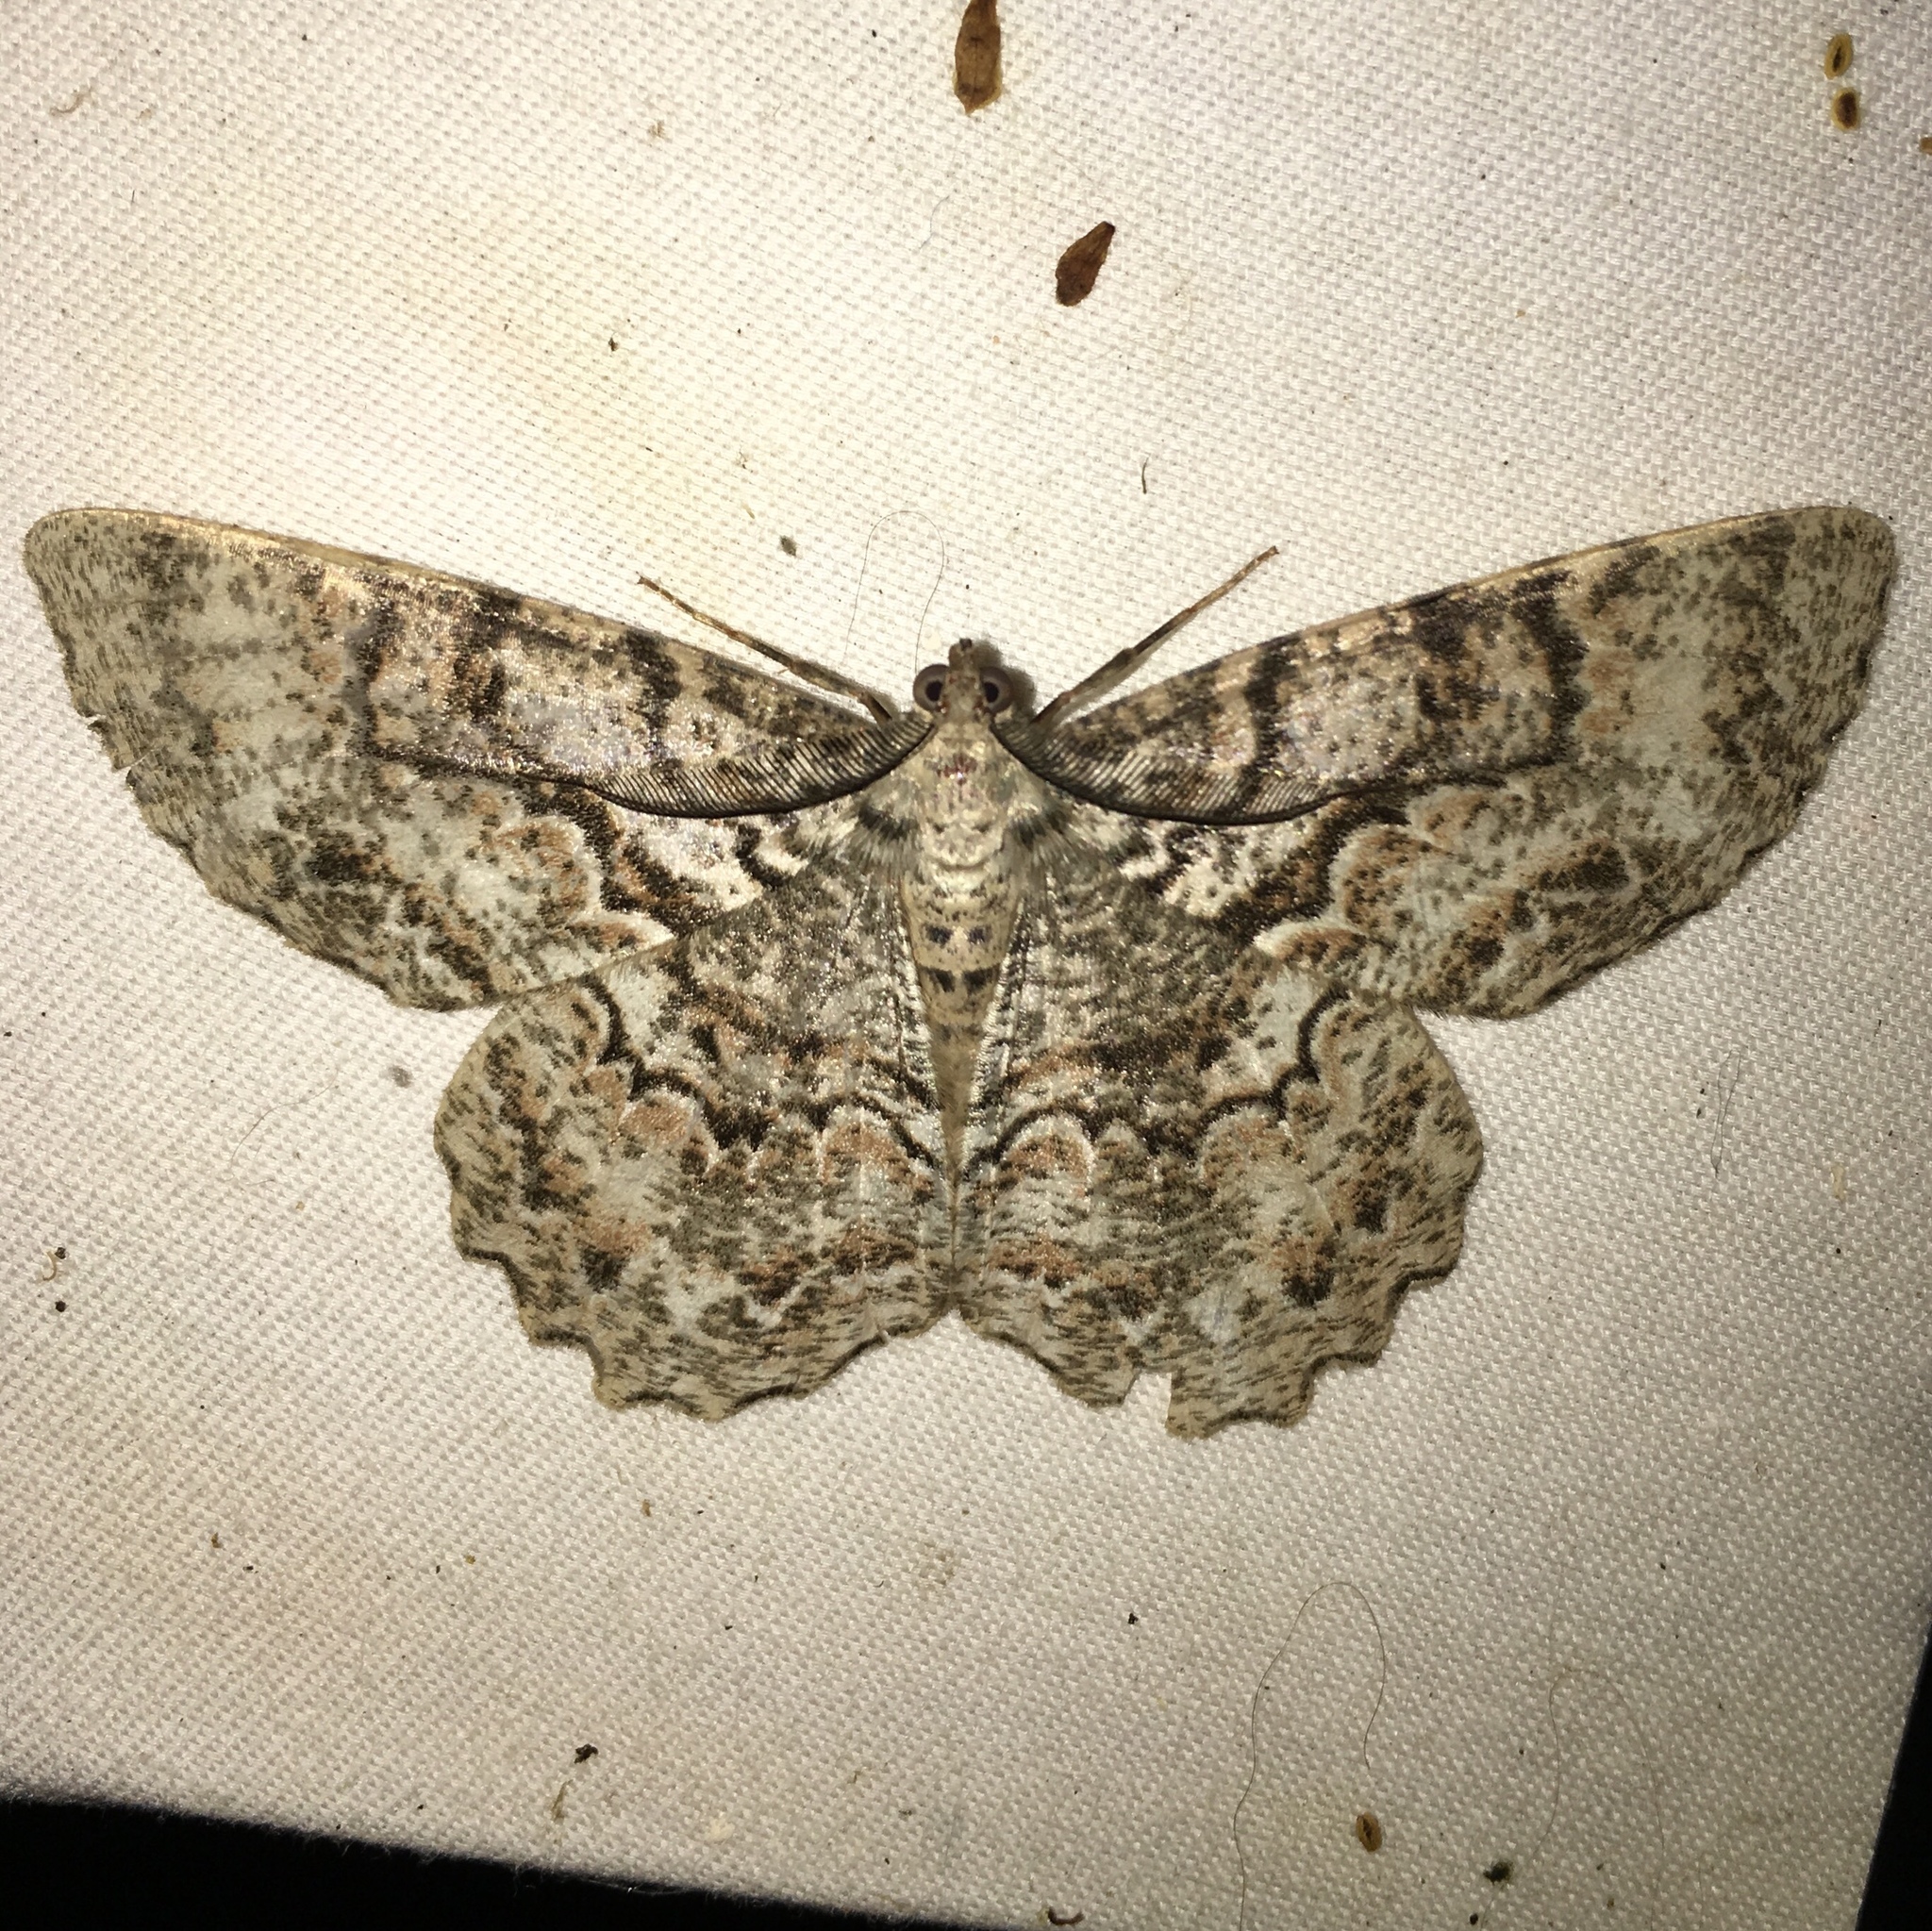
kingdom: Animalia
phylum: Arthropoda
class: Insecta
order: Lepidoptera
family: Geometridae
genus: Epimecis
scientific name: Epimecis hortaria
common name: Tulip-tree beauty
